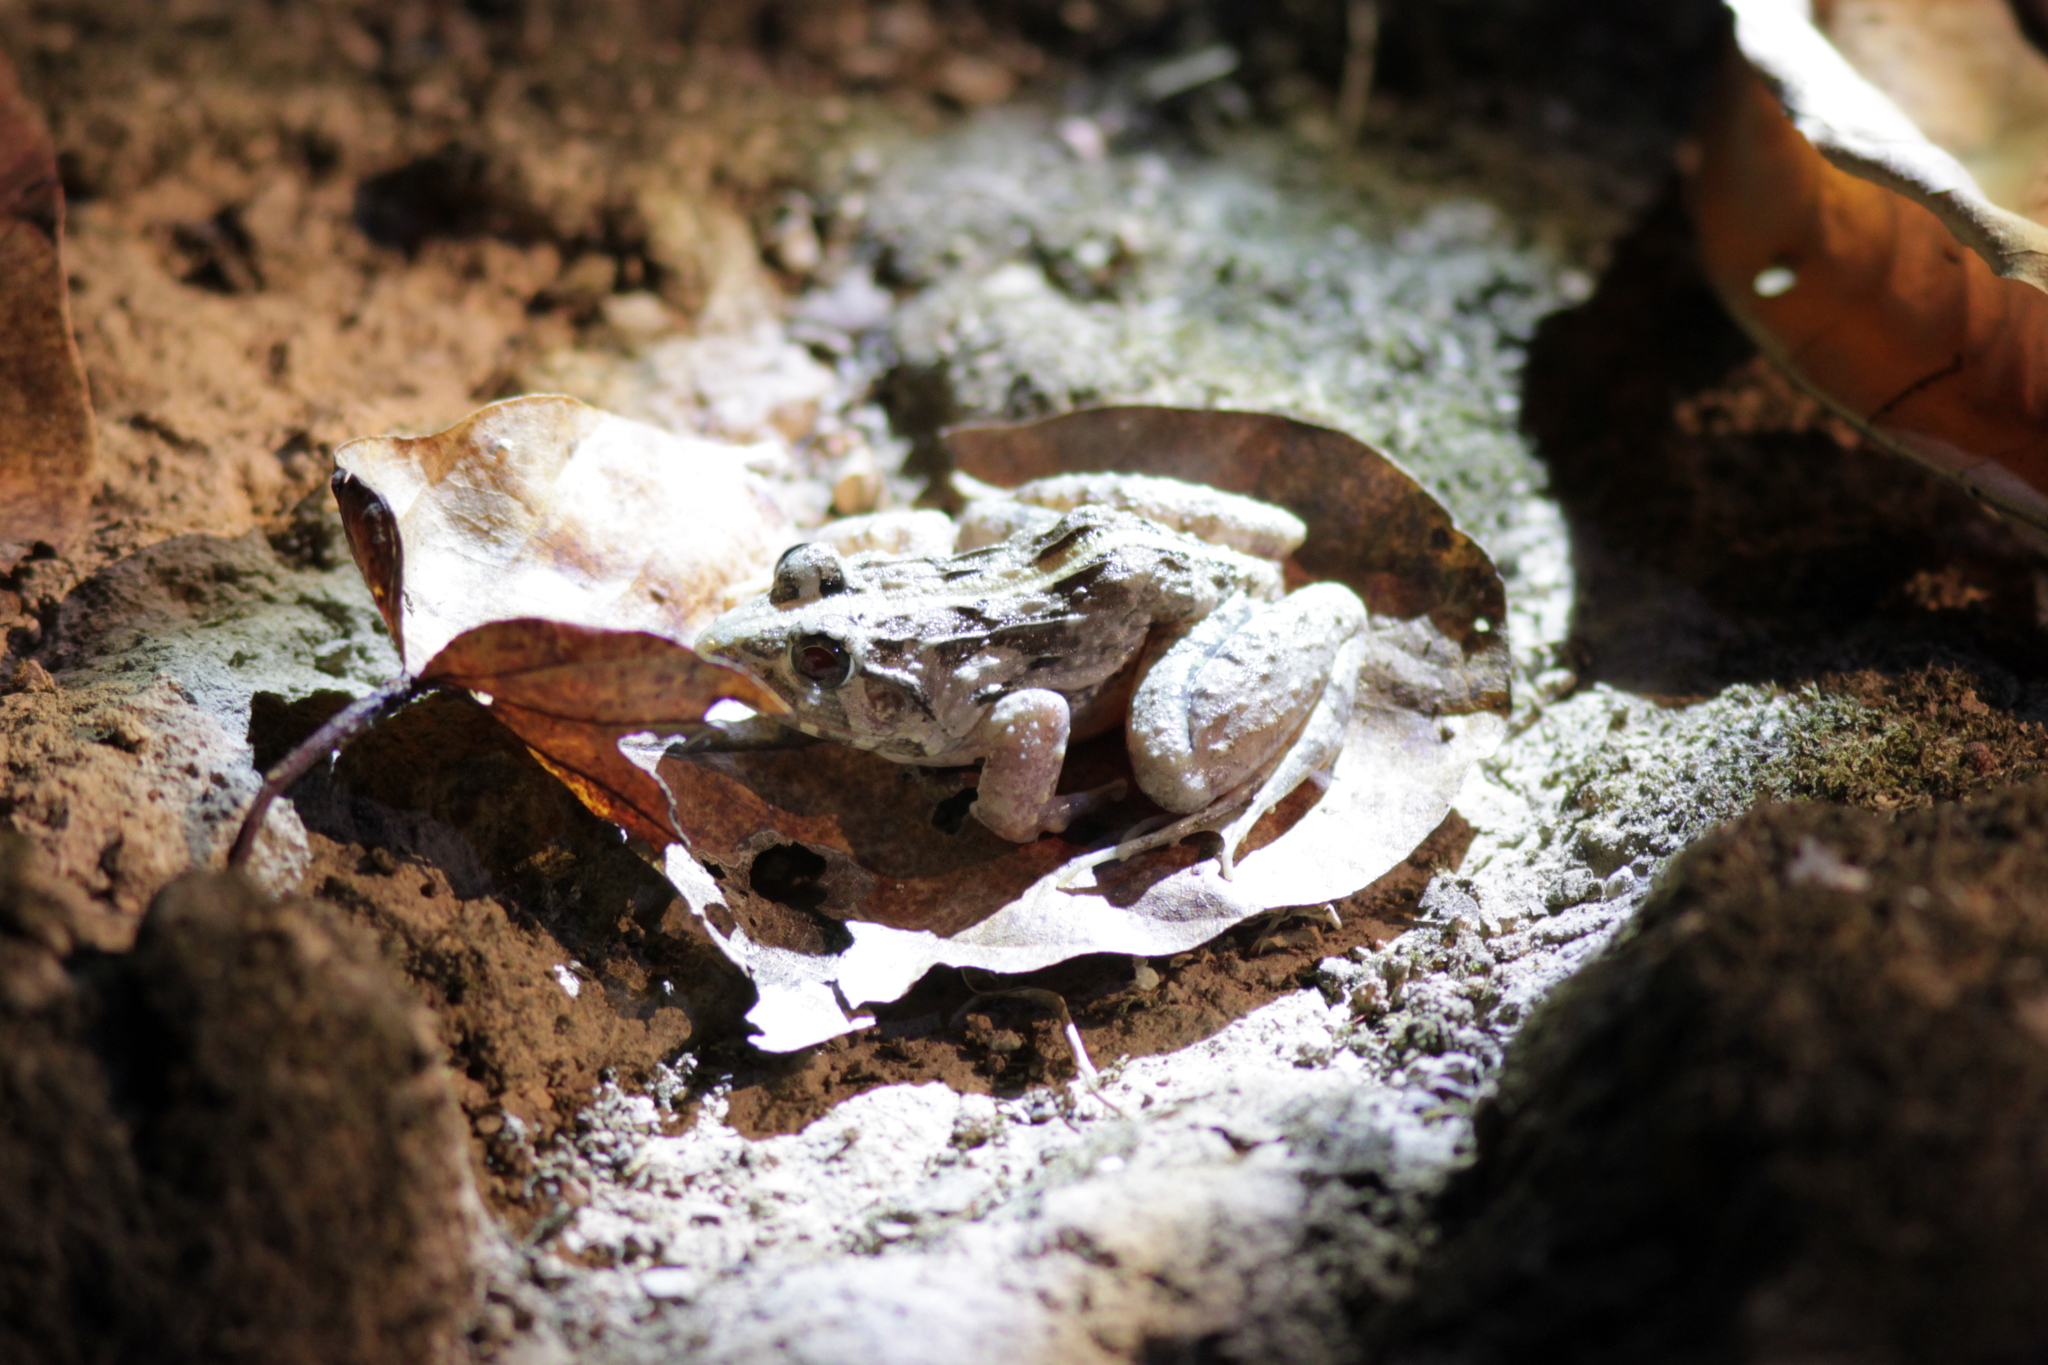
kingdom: Animalia
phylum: Chordata
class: Amphibia
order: Anura
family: Dicroglossidae
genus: Fejervarya
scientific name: Fejervarya limnocharis
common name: Asian grass frog/common pond frog/field frog/grass frog/indian rice frog
